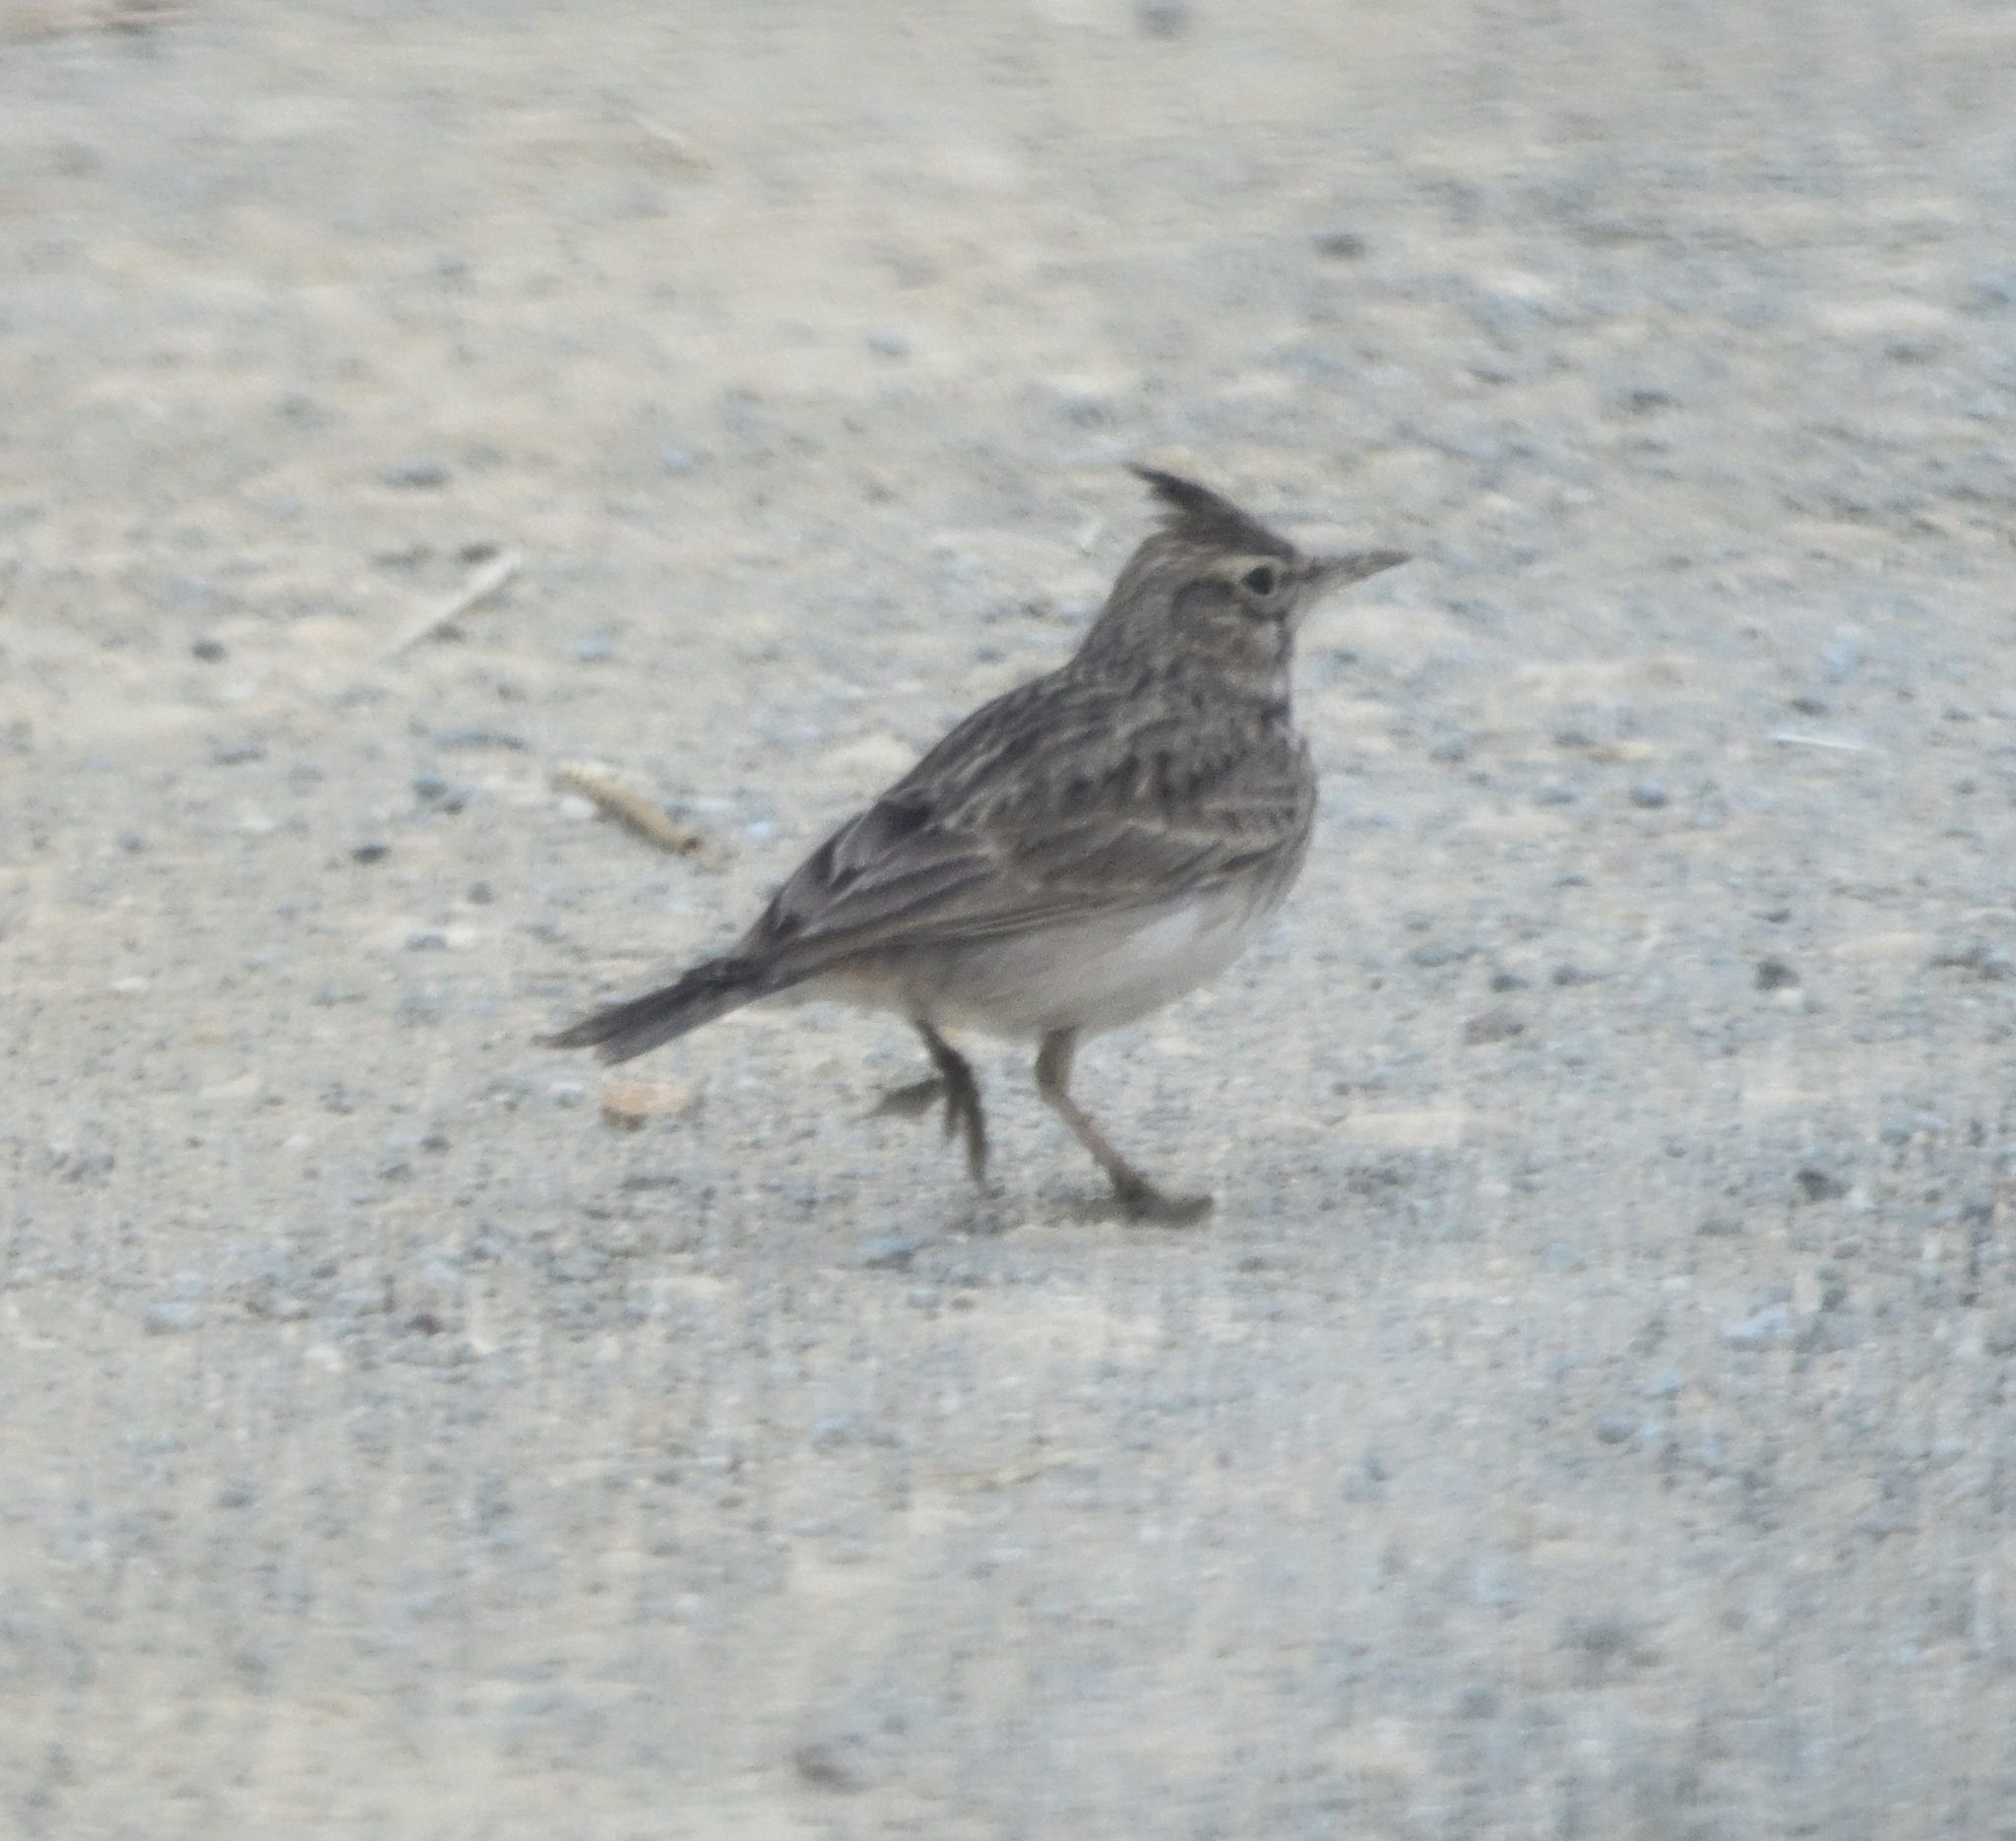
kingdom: Animalia
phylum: Chordata
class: Aves
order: Passeriformes
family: Alaudidae
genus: Galerida
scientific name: Galerida cristata
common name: Crested lark
